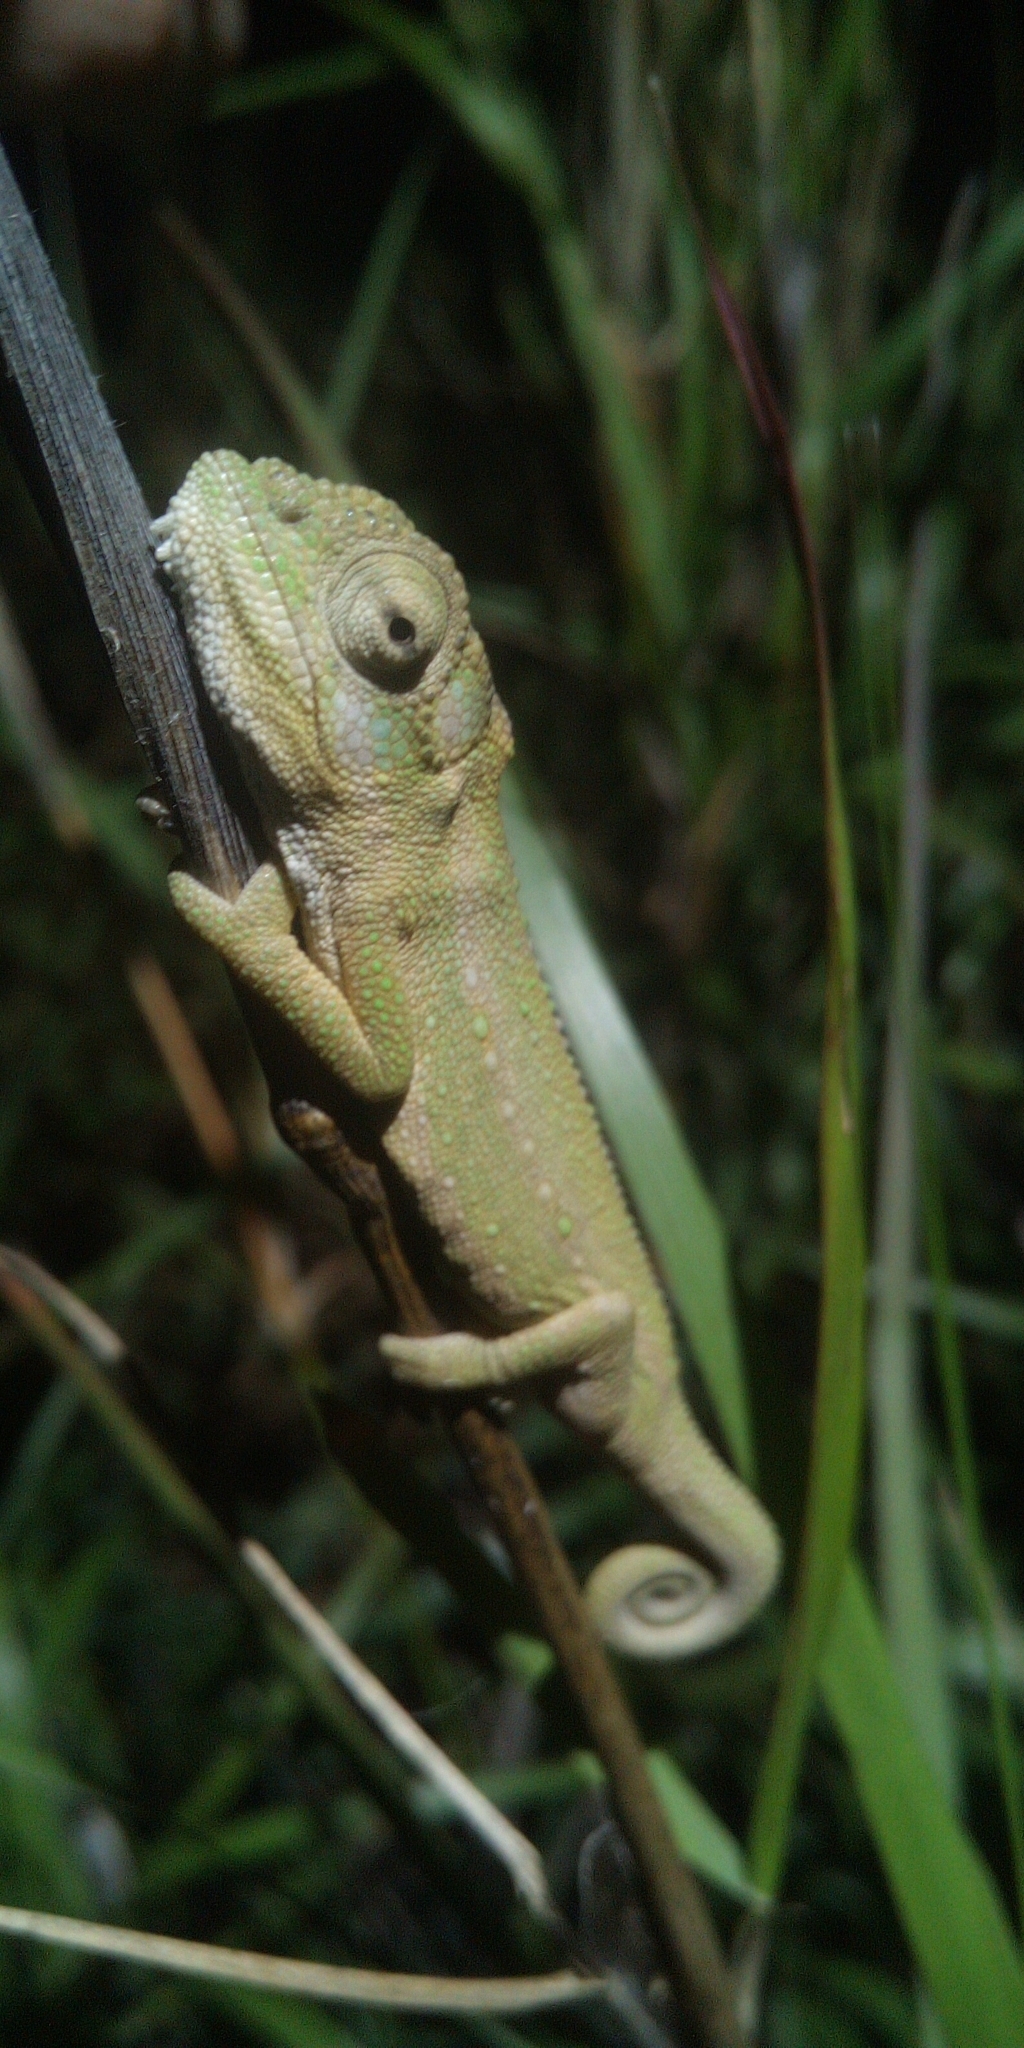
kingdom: Animalia
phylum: Chordata
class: Squamata
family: Chamaeleonidae
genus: Bradypodion
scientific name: Bradypodion pumilum
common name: Cape dwarf chameleon
